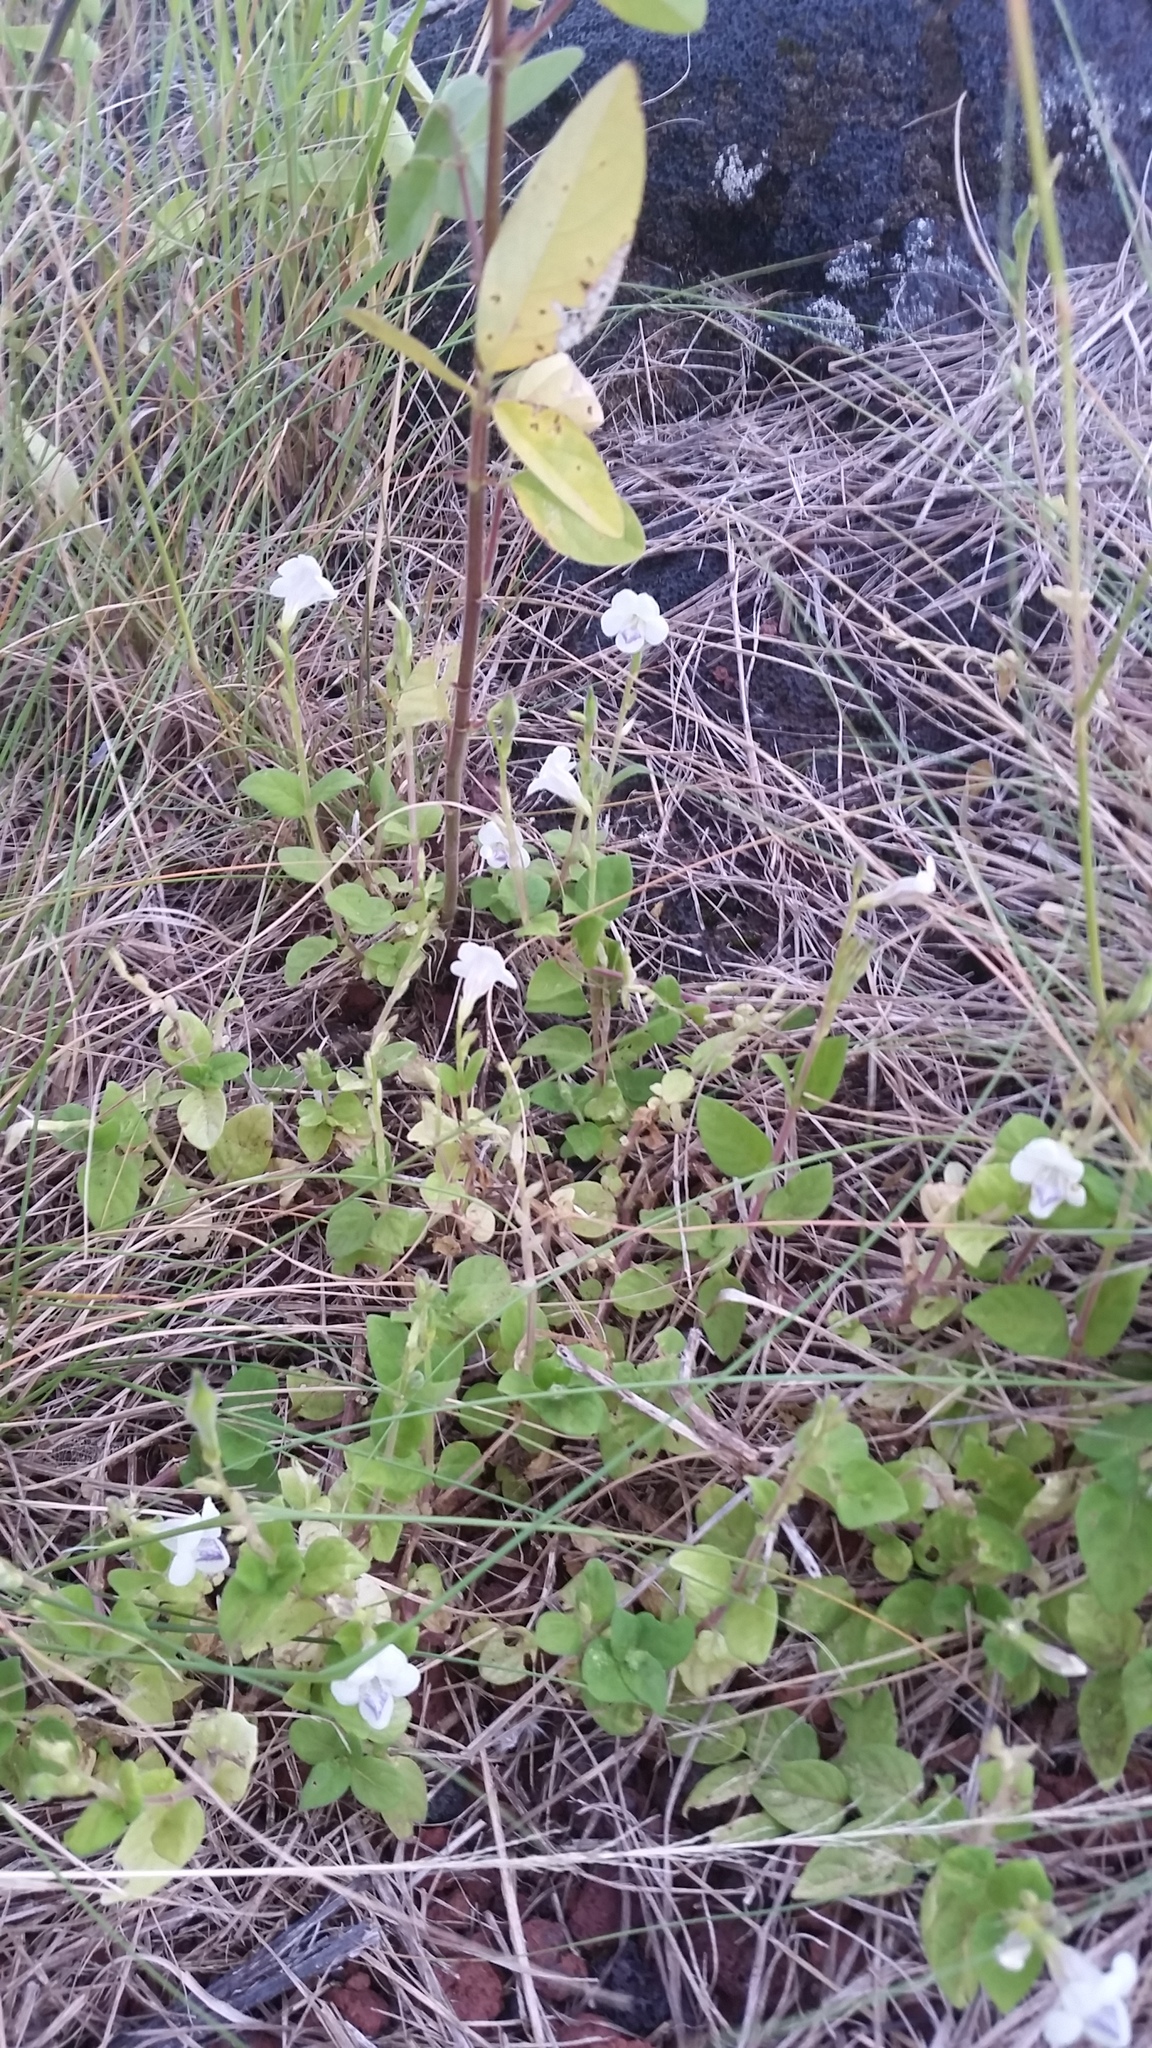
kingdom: Plantae
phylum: Tracheophyta
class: Magnoliopsida
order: Lamiales
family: Acanthaceae
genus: Asystasia
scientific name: Asystasia intrusa
